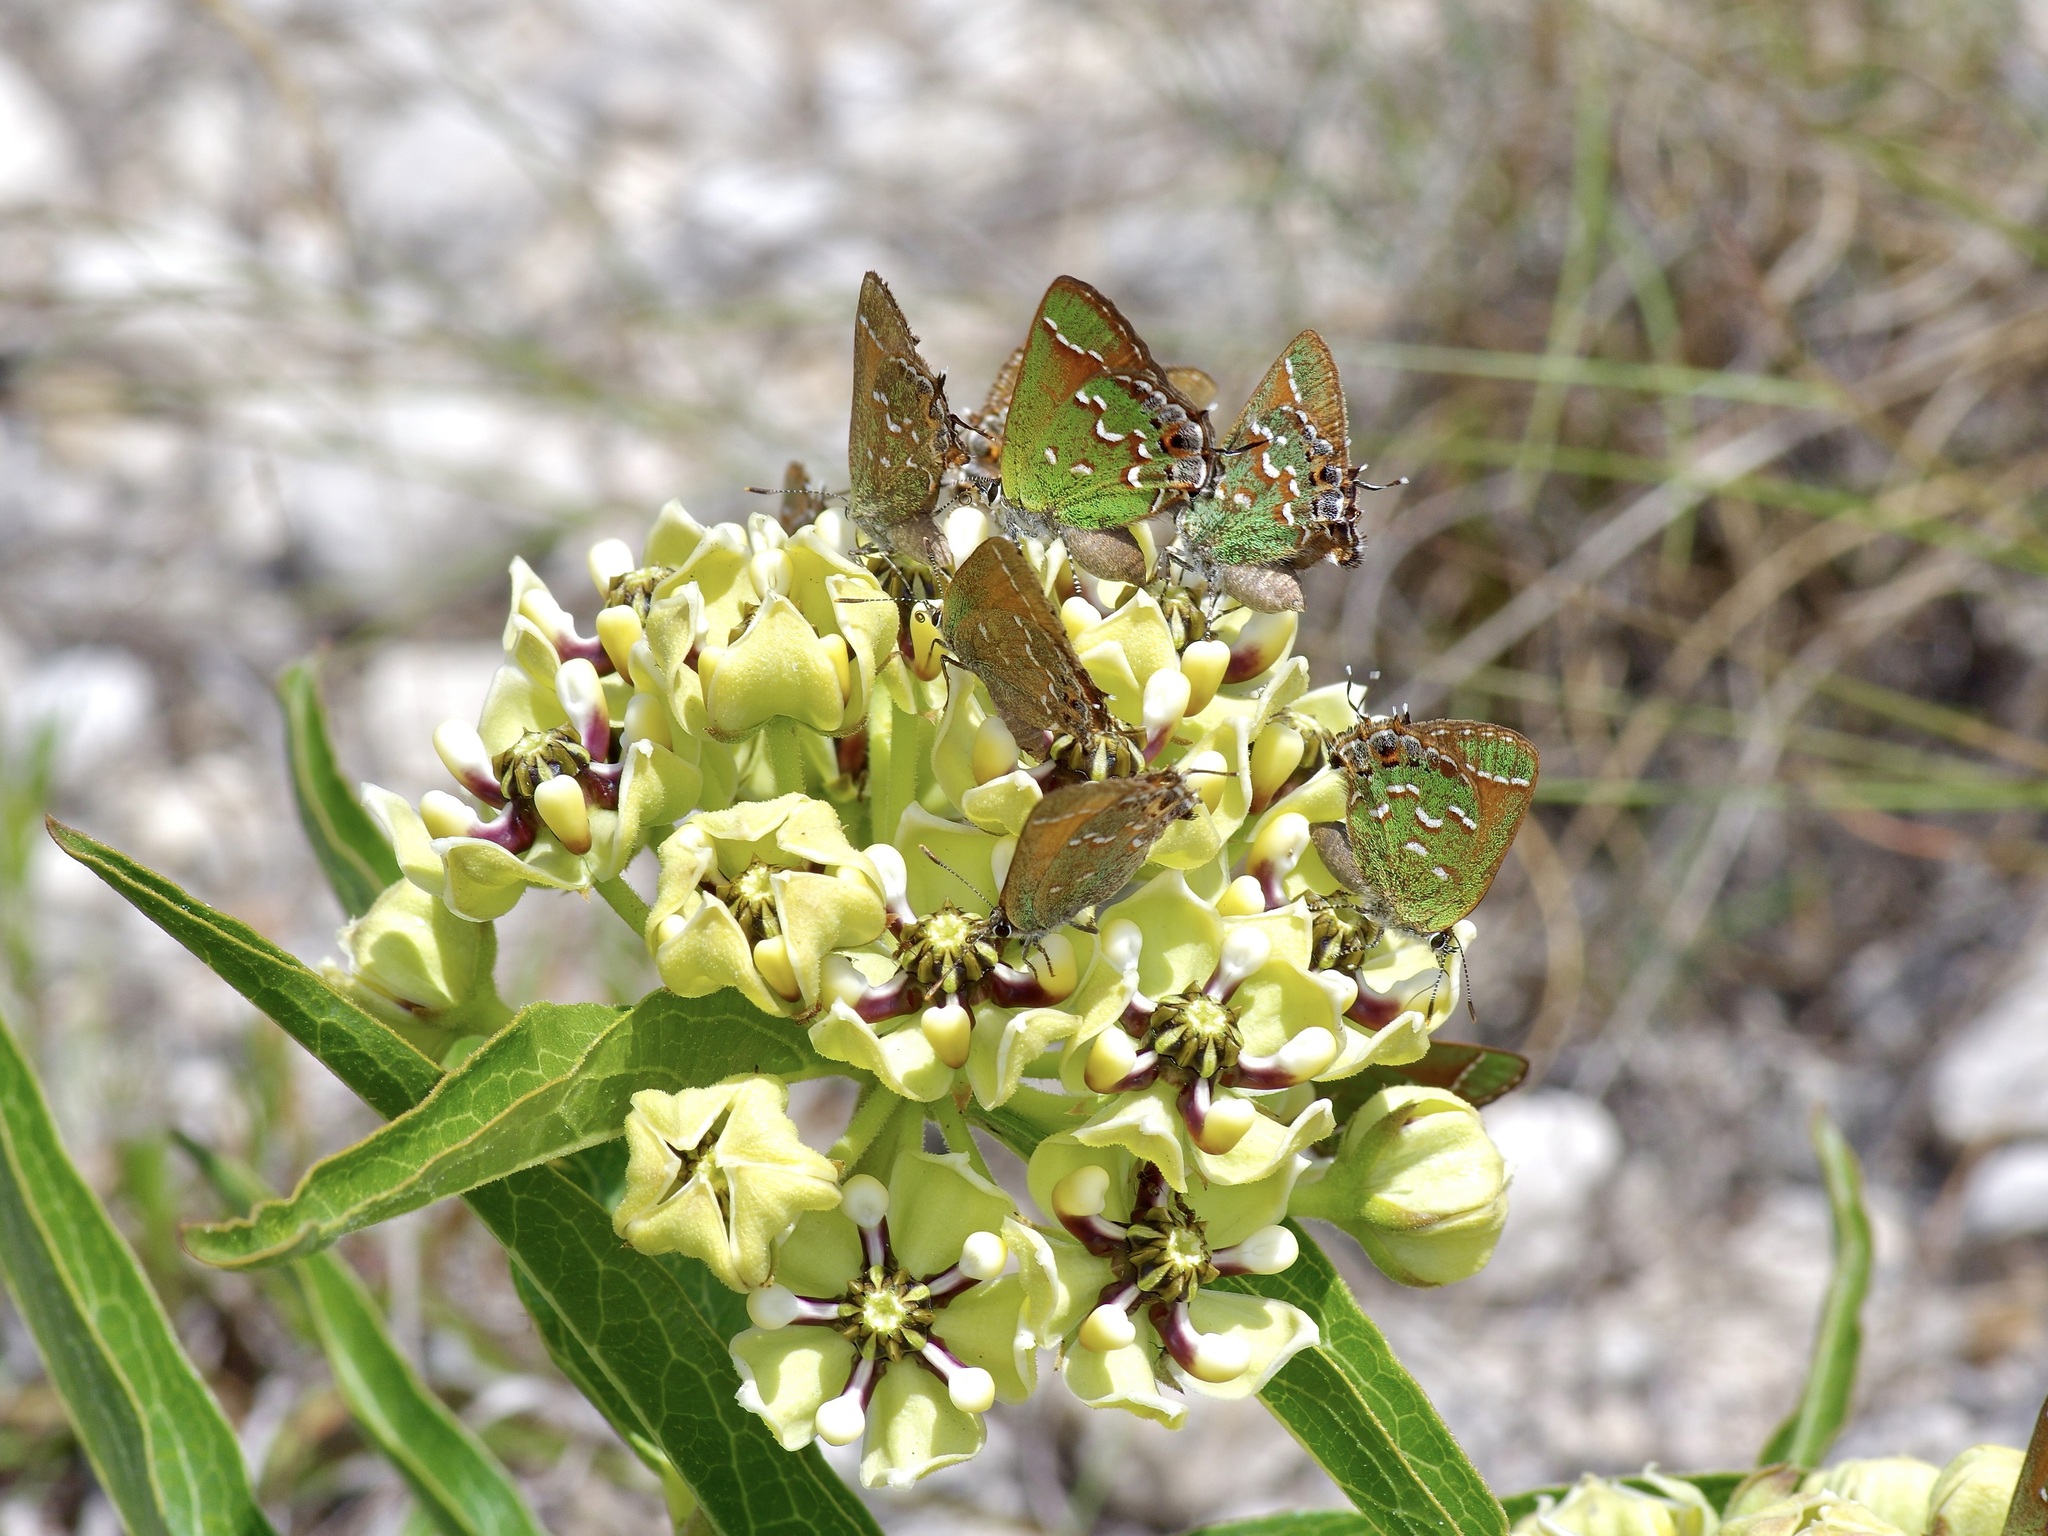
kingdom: Animalia
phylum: Arthropoda
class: Insecta
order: Lepidoptera
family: Lycaenidae
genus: Mitoura
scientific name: Mitoura gryneus
